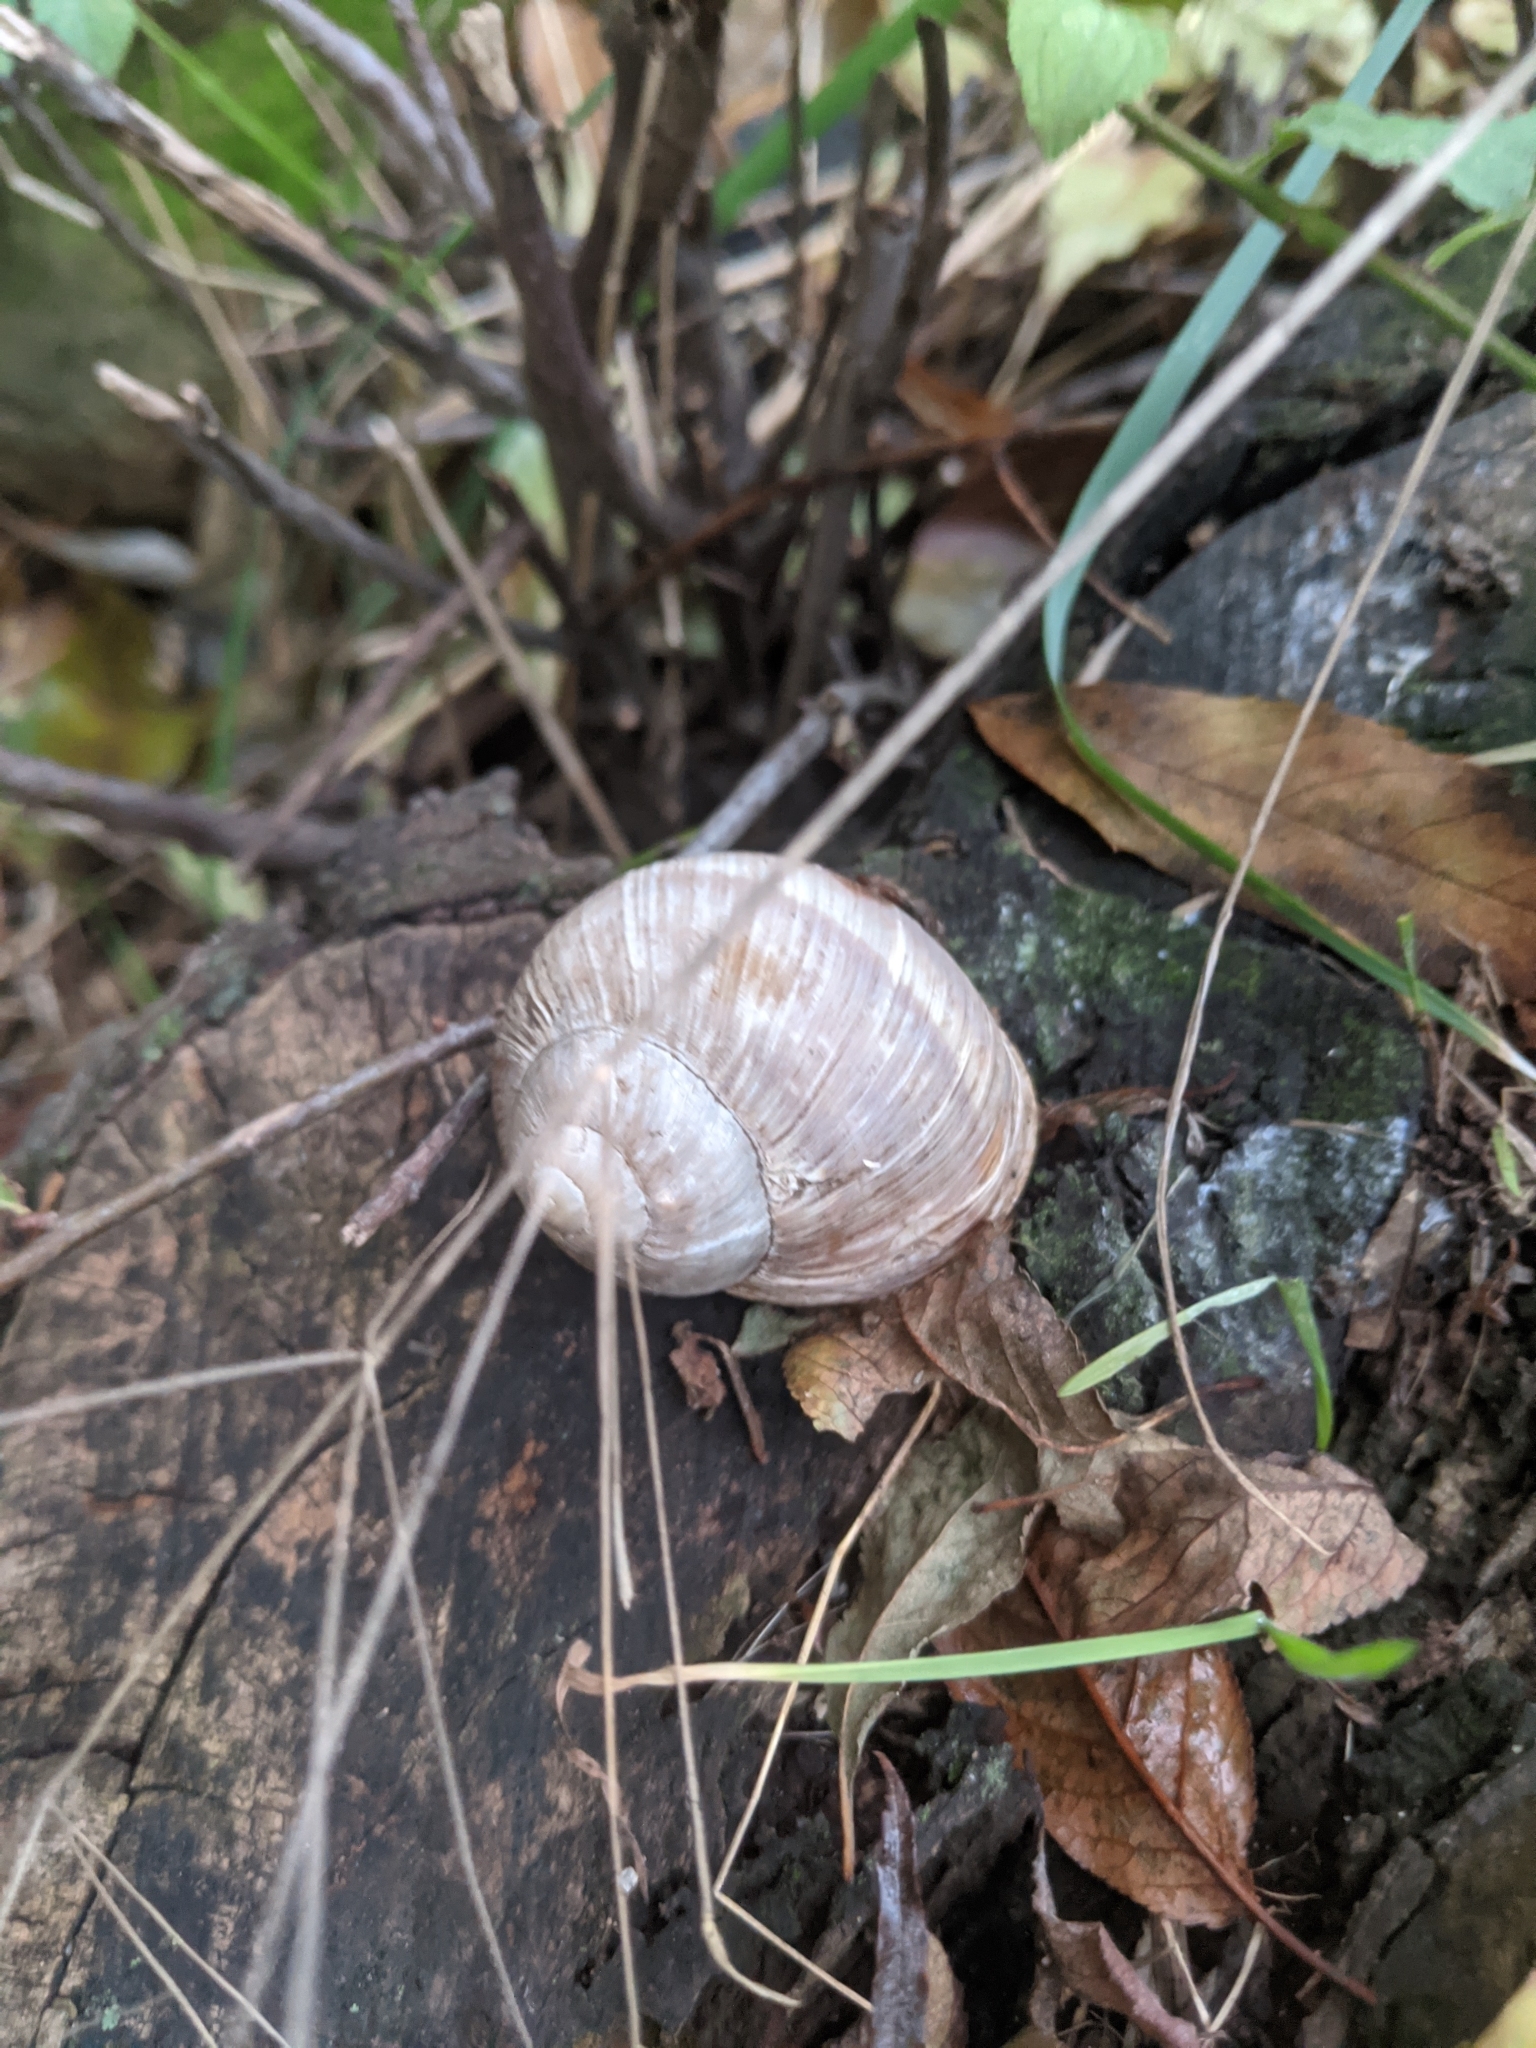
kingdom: Animalia
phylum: Mollusca
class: Gastropoda
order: Stylommatophora
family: Helicidae
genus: Helix
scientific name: Helix pomatia
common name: Roman snail
